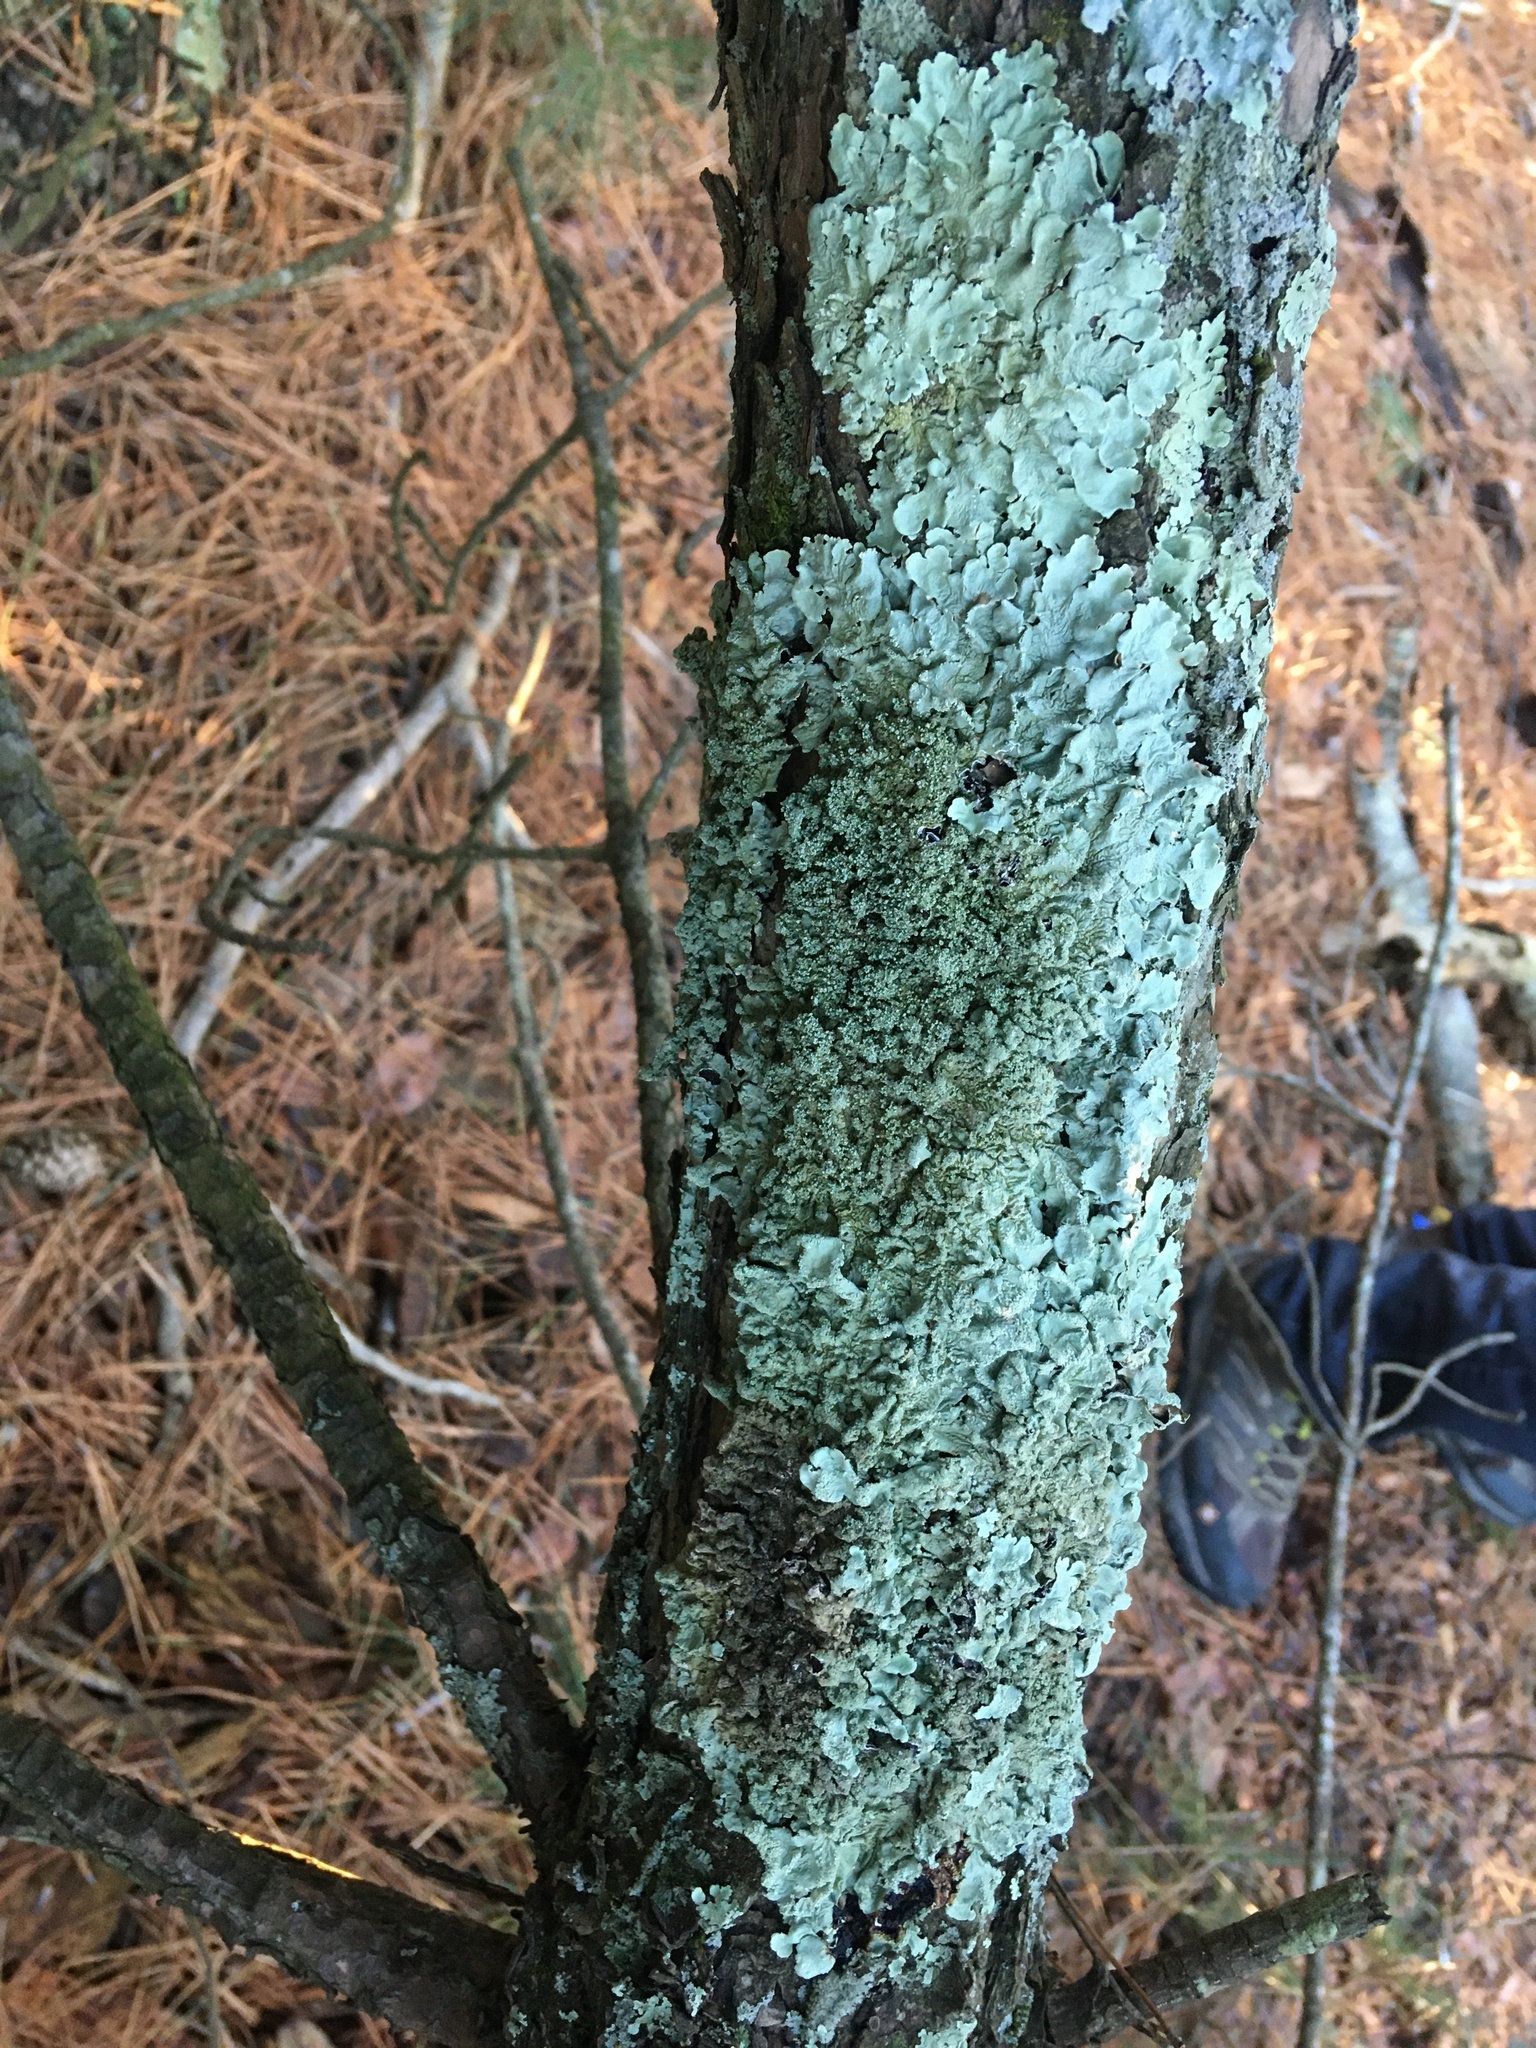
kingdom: Fungi
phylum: Ascomycota
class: Lecanoromycetes
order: Lecanorales
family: Parmeliaceae
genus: Flavoparmelia
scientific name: Flavoparmelia caperata
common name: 40-mile per hour lichen
